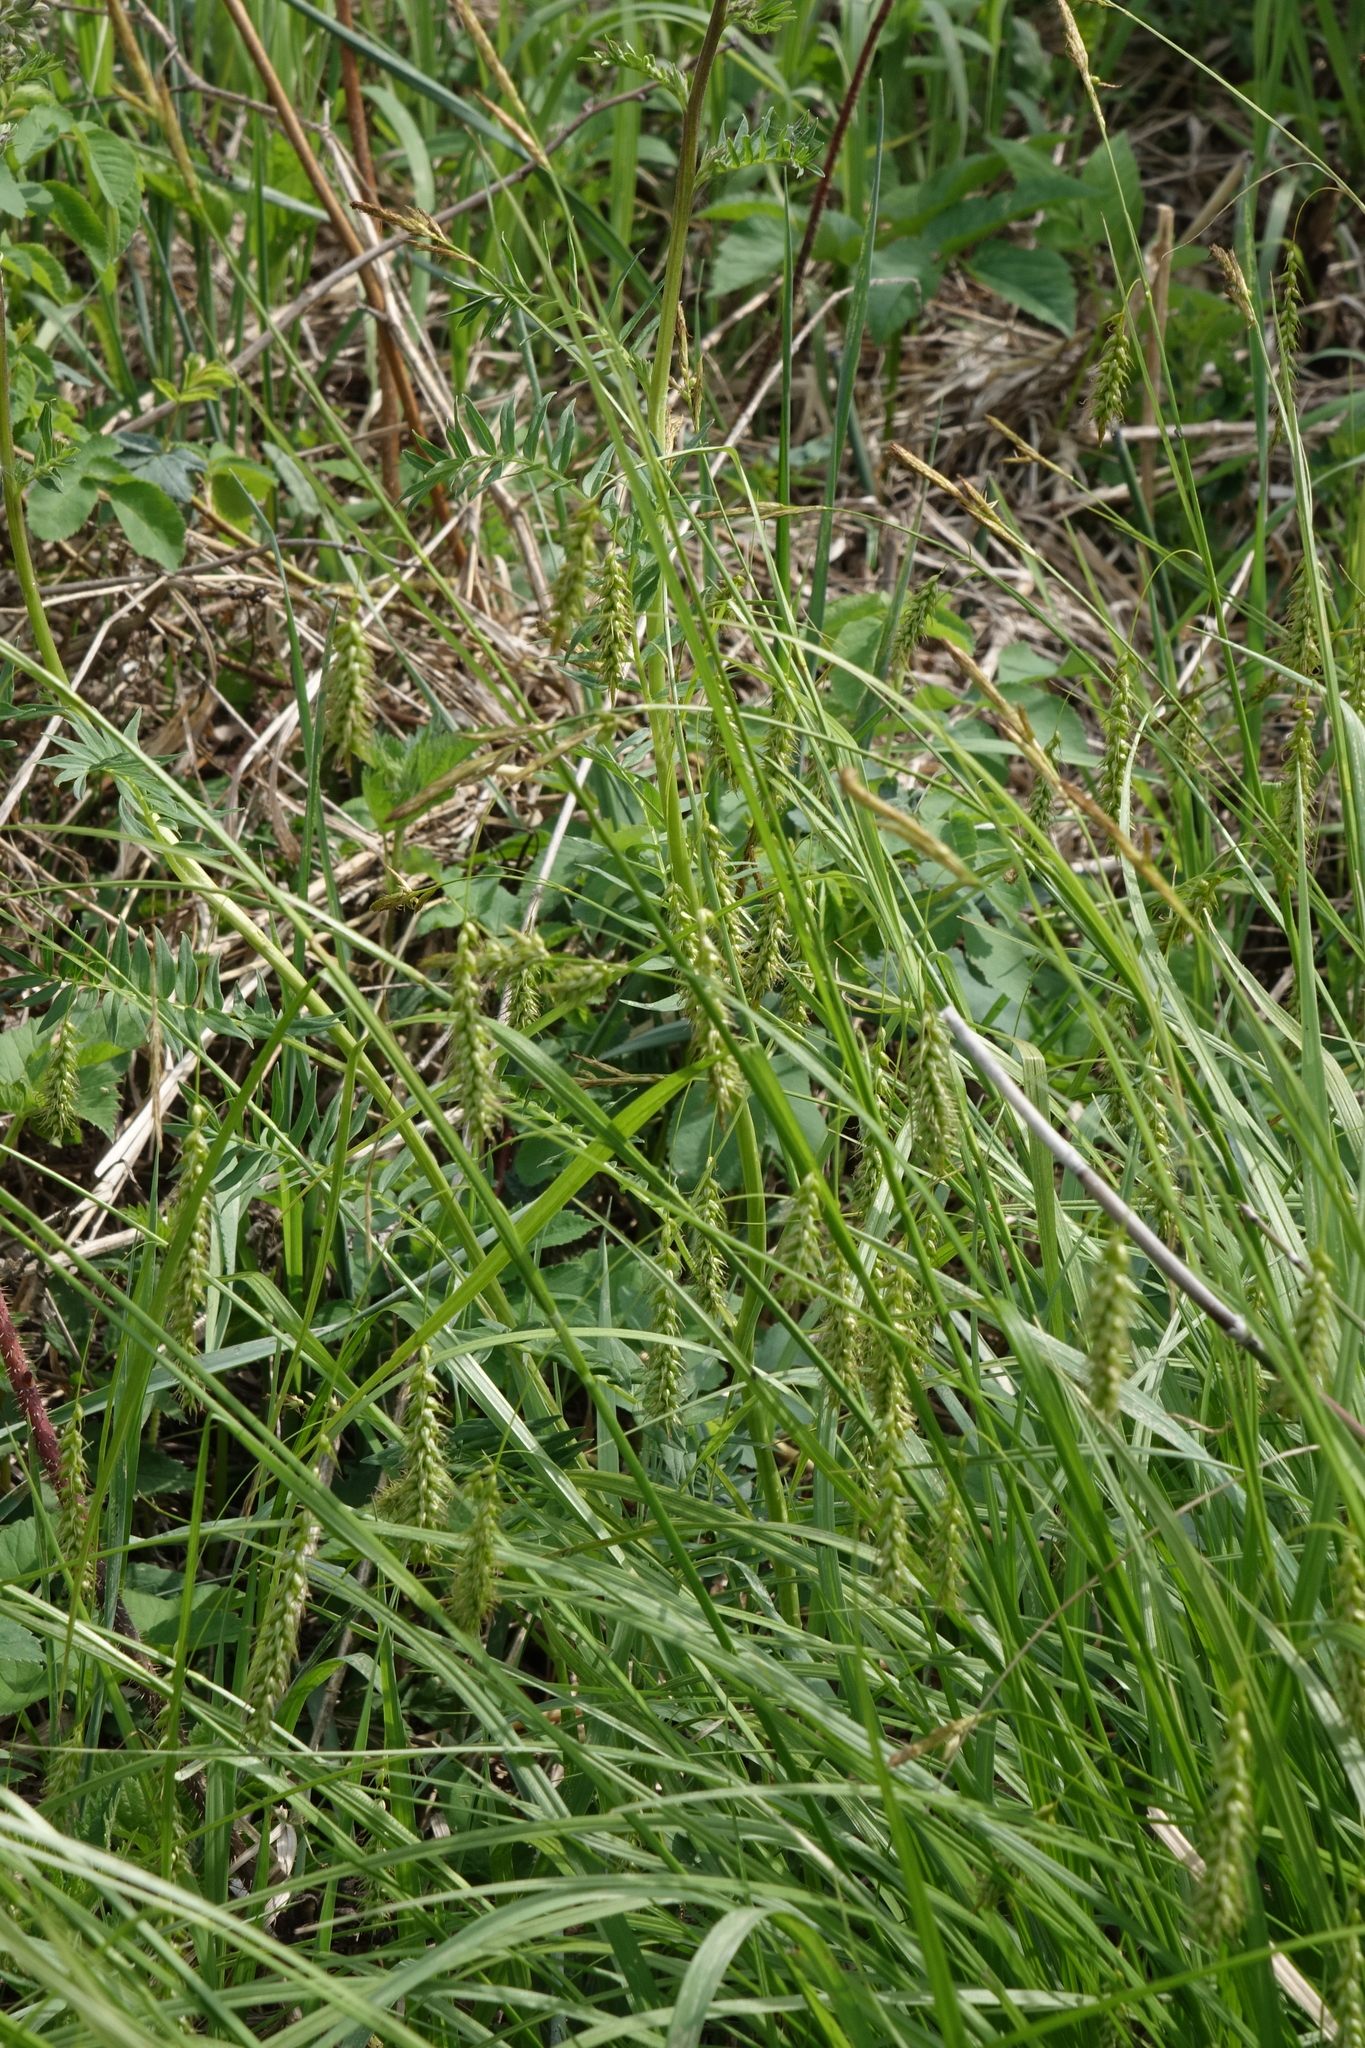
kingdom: Plantae
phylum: Tracheophyta
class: Liliopsida
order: Poales
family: Cyperaceae
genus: Carex
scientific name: Carex arnellii
